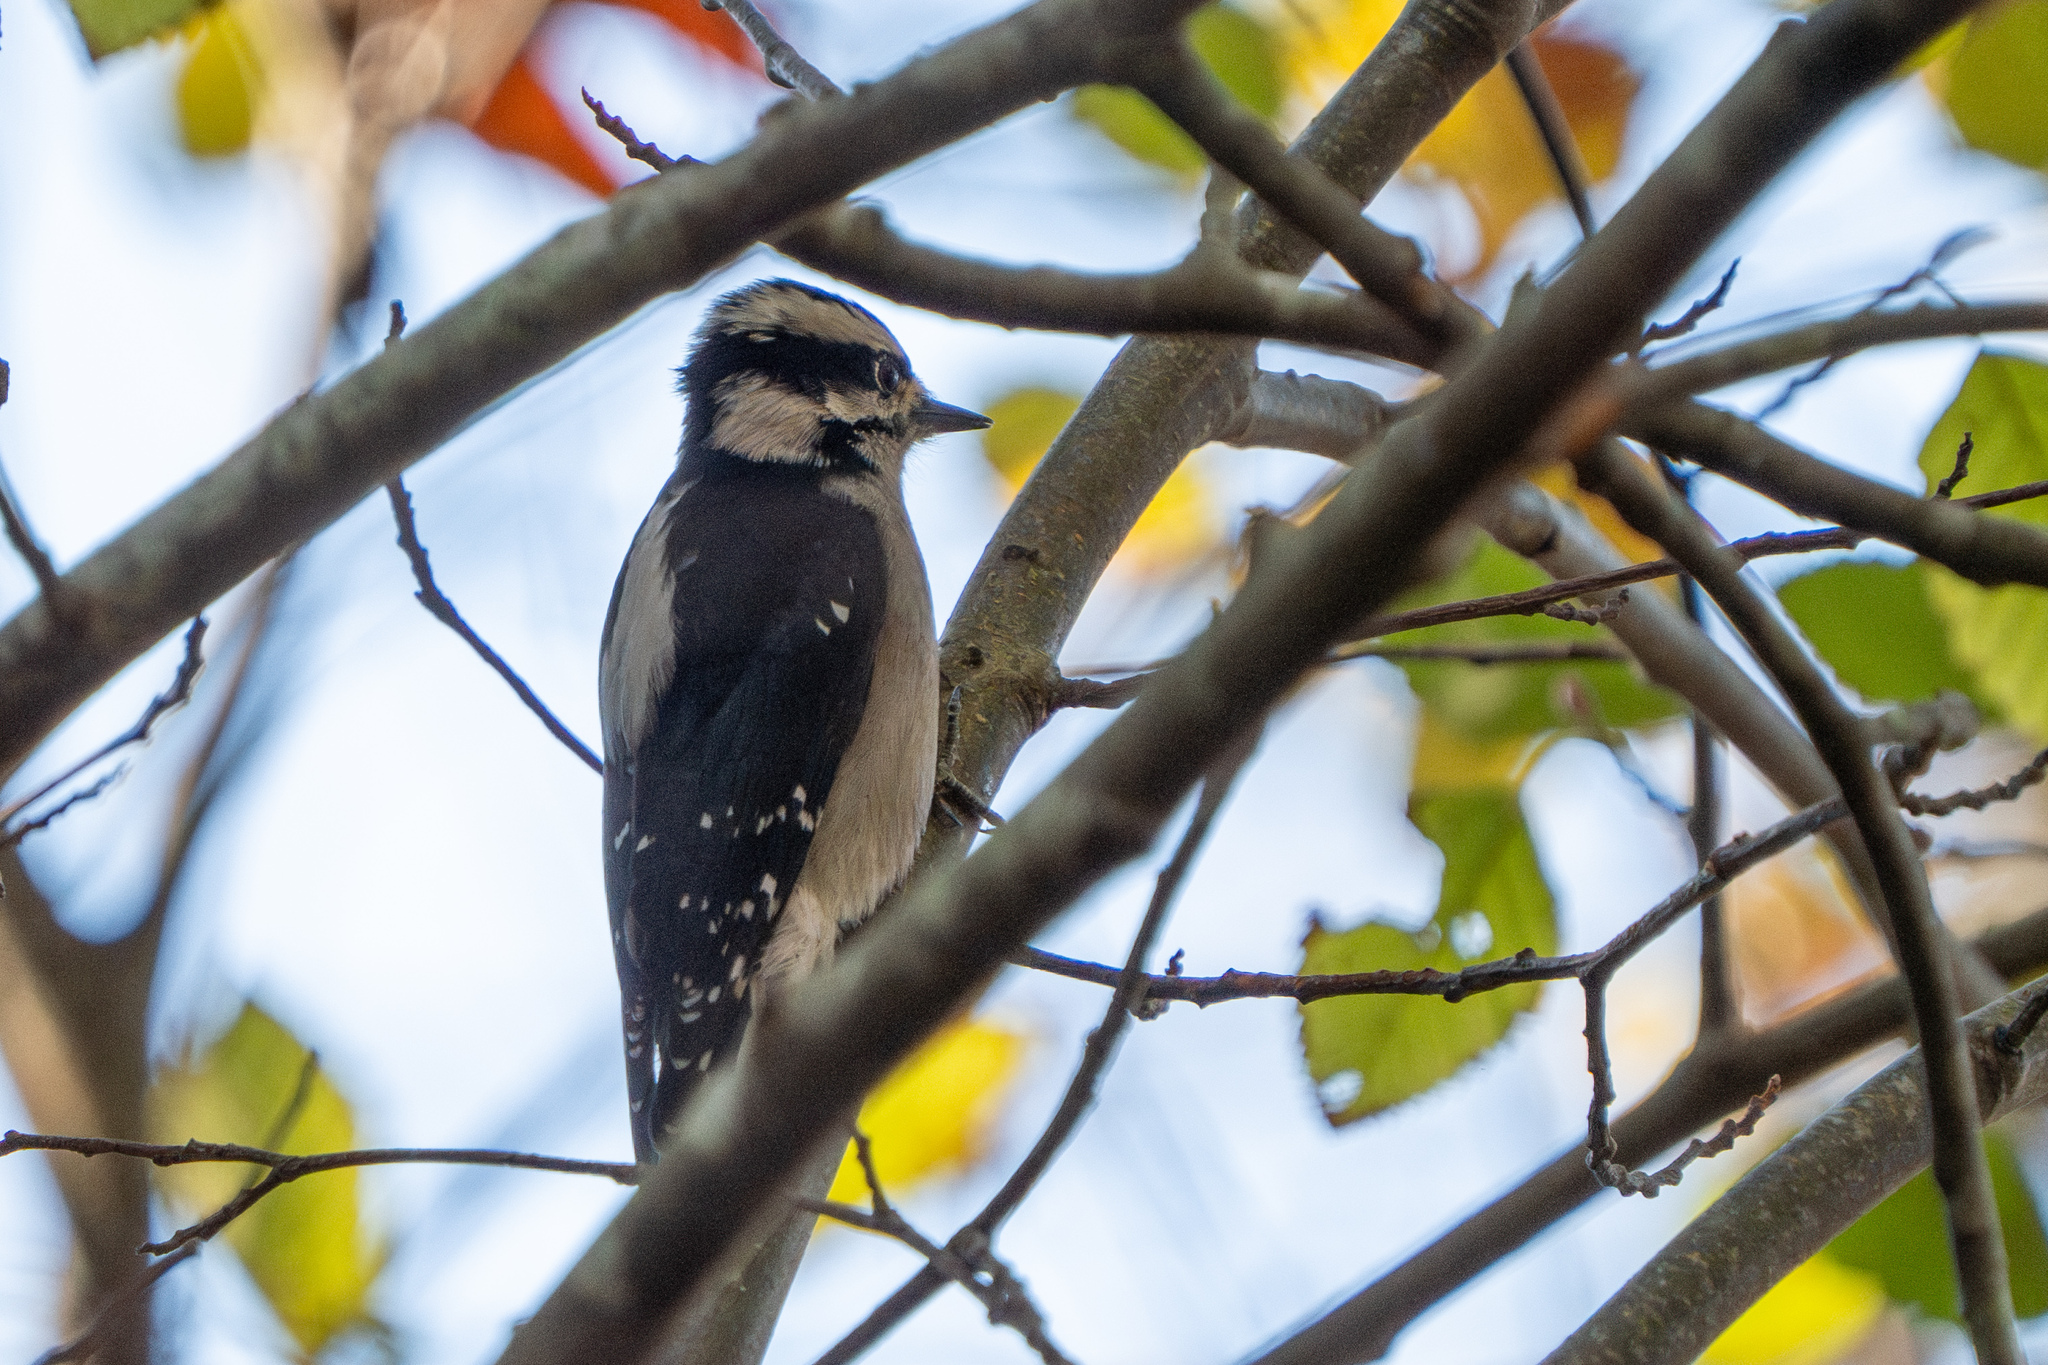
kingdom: Animalia
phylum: Chordata
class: Aves
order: Piciformes
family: Picidae
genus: Dryobates
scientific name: Dryobates pubescens
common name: Downy woodpecker
